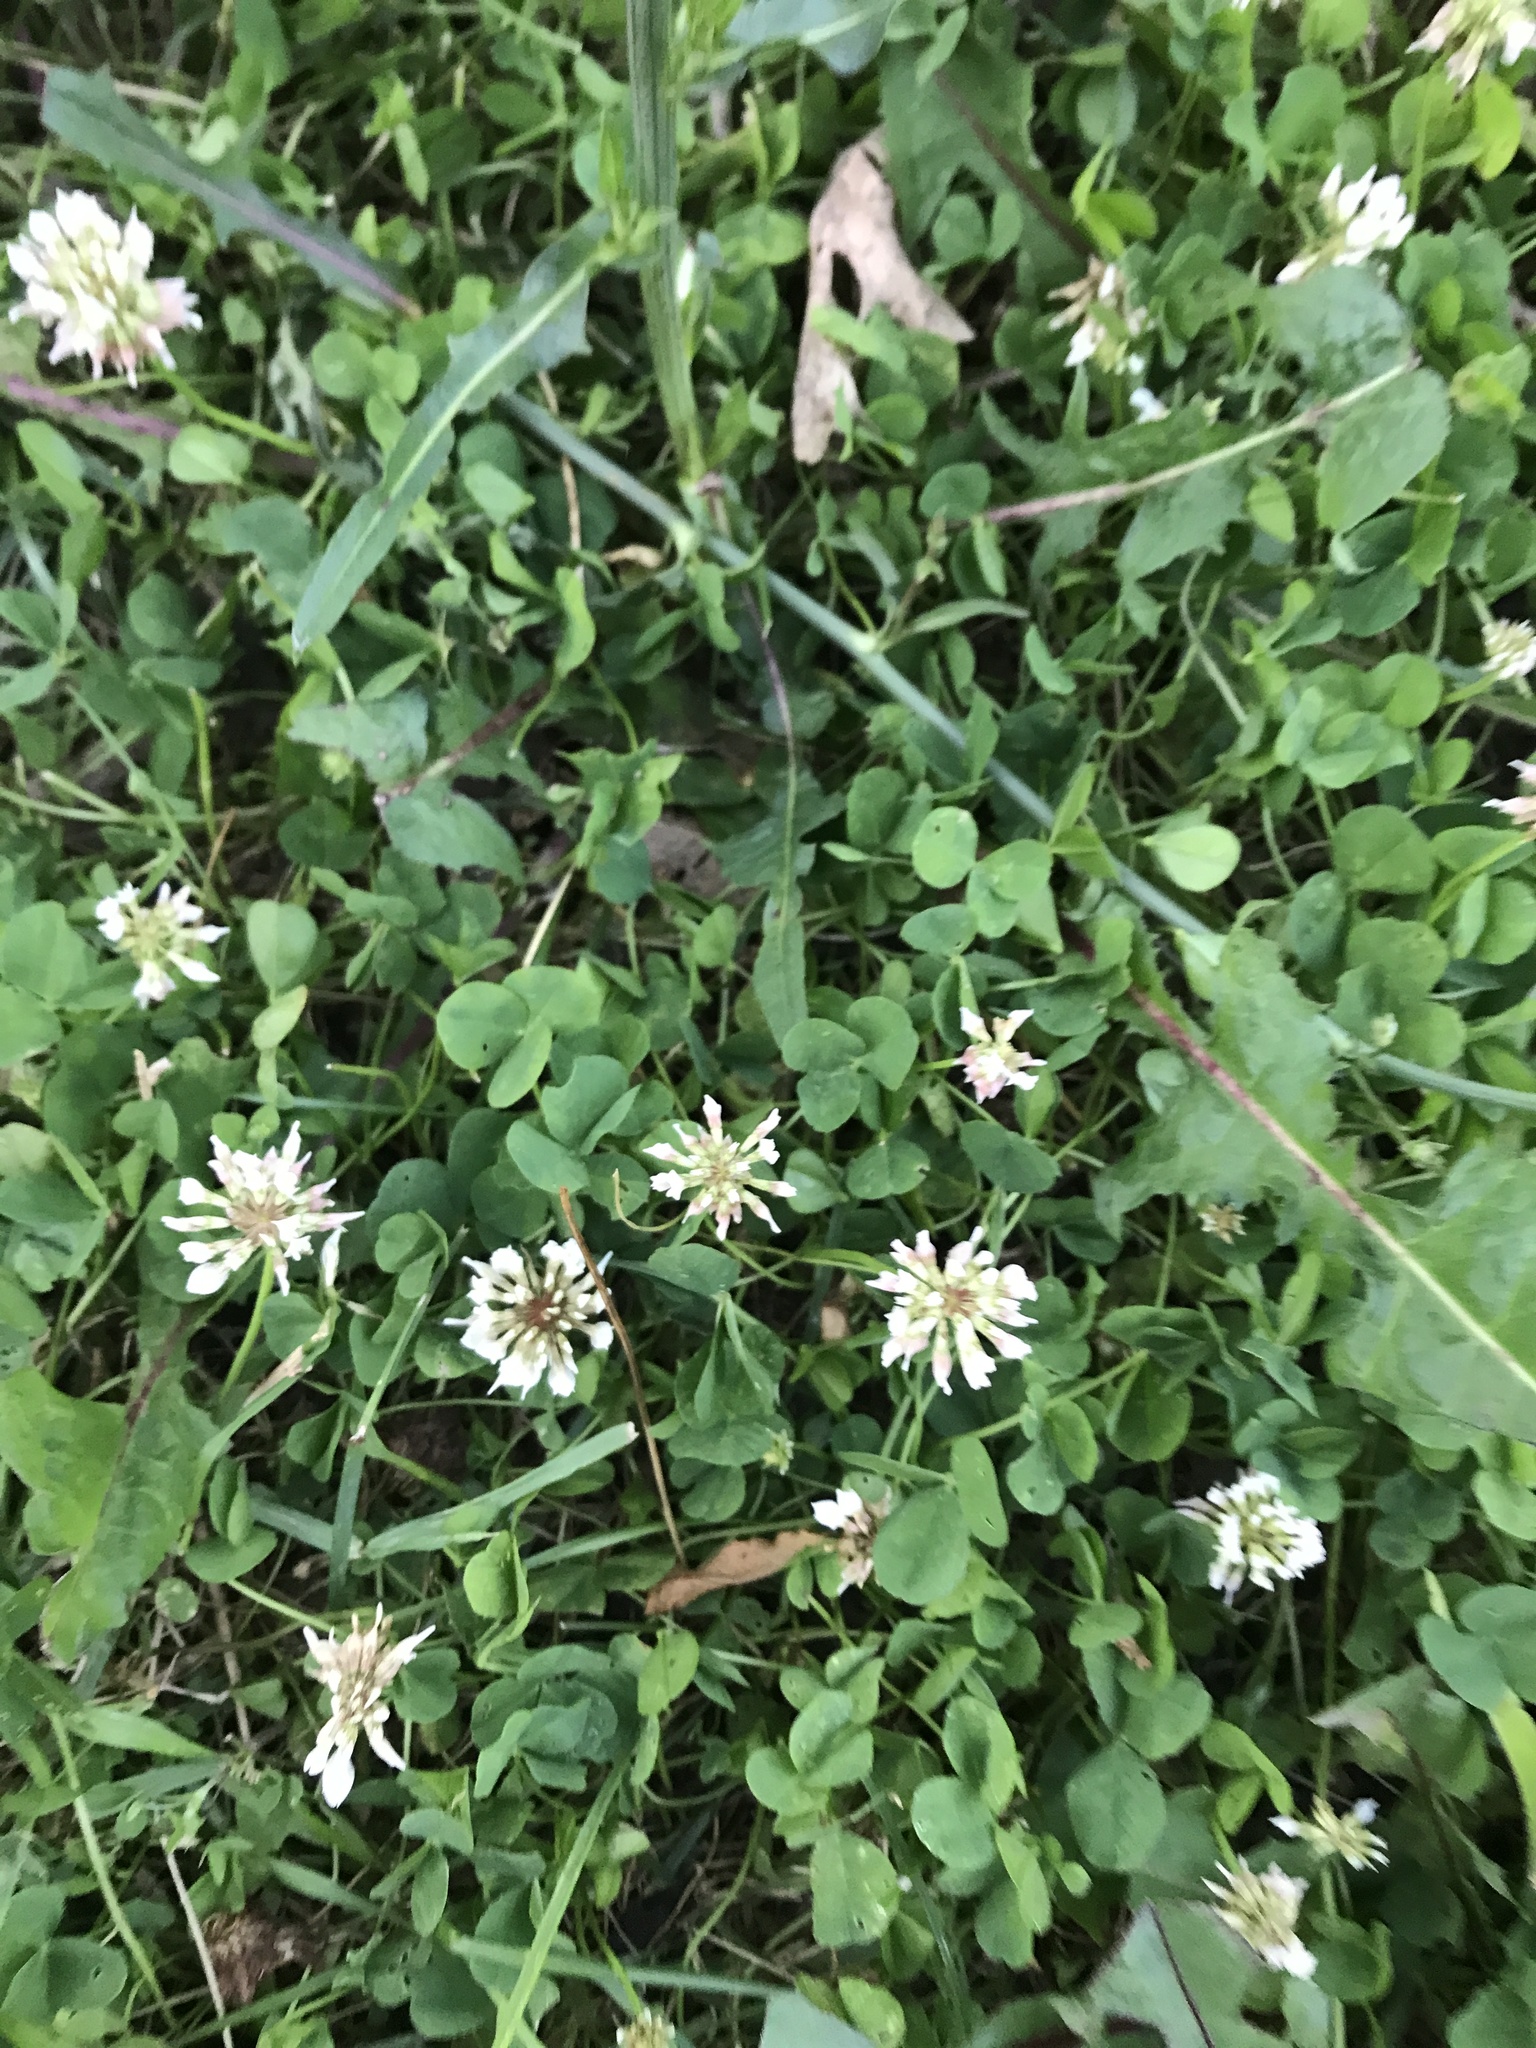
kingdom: Plantae
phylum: Tracheophyta
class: Magnoliopsida
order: Fabales
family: Fabaceae
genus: Trifolium
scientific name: Trifolium repens
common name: White clover
